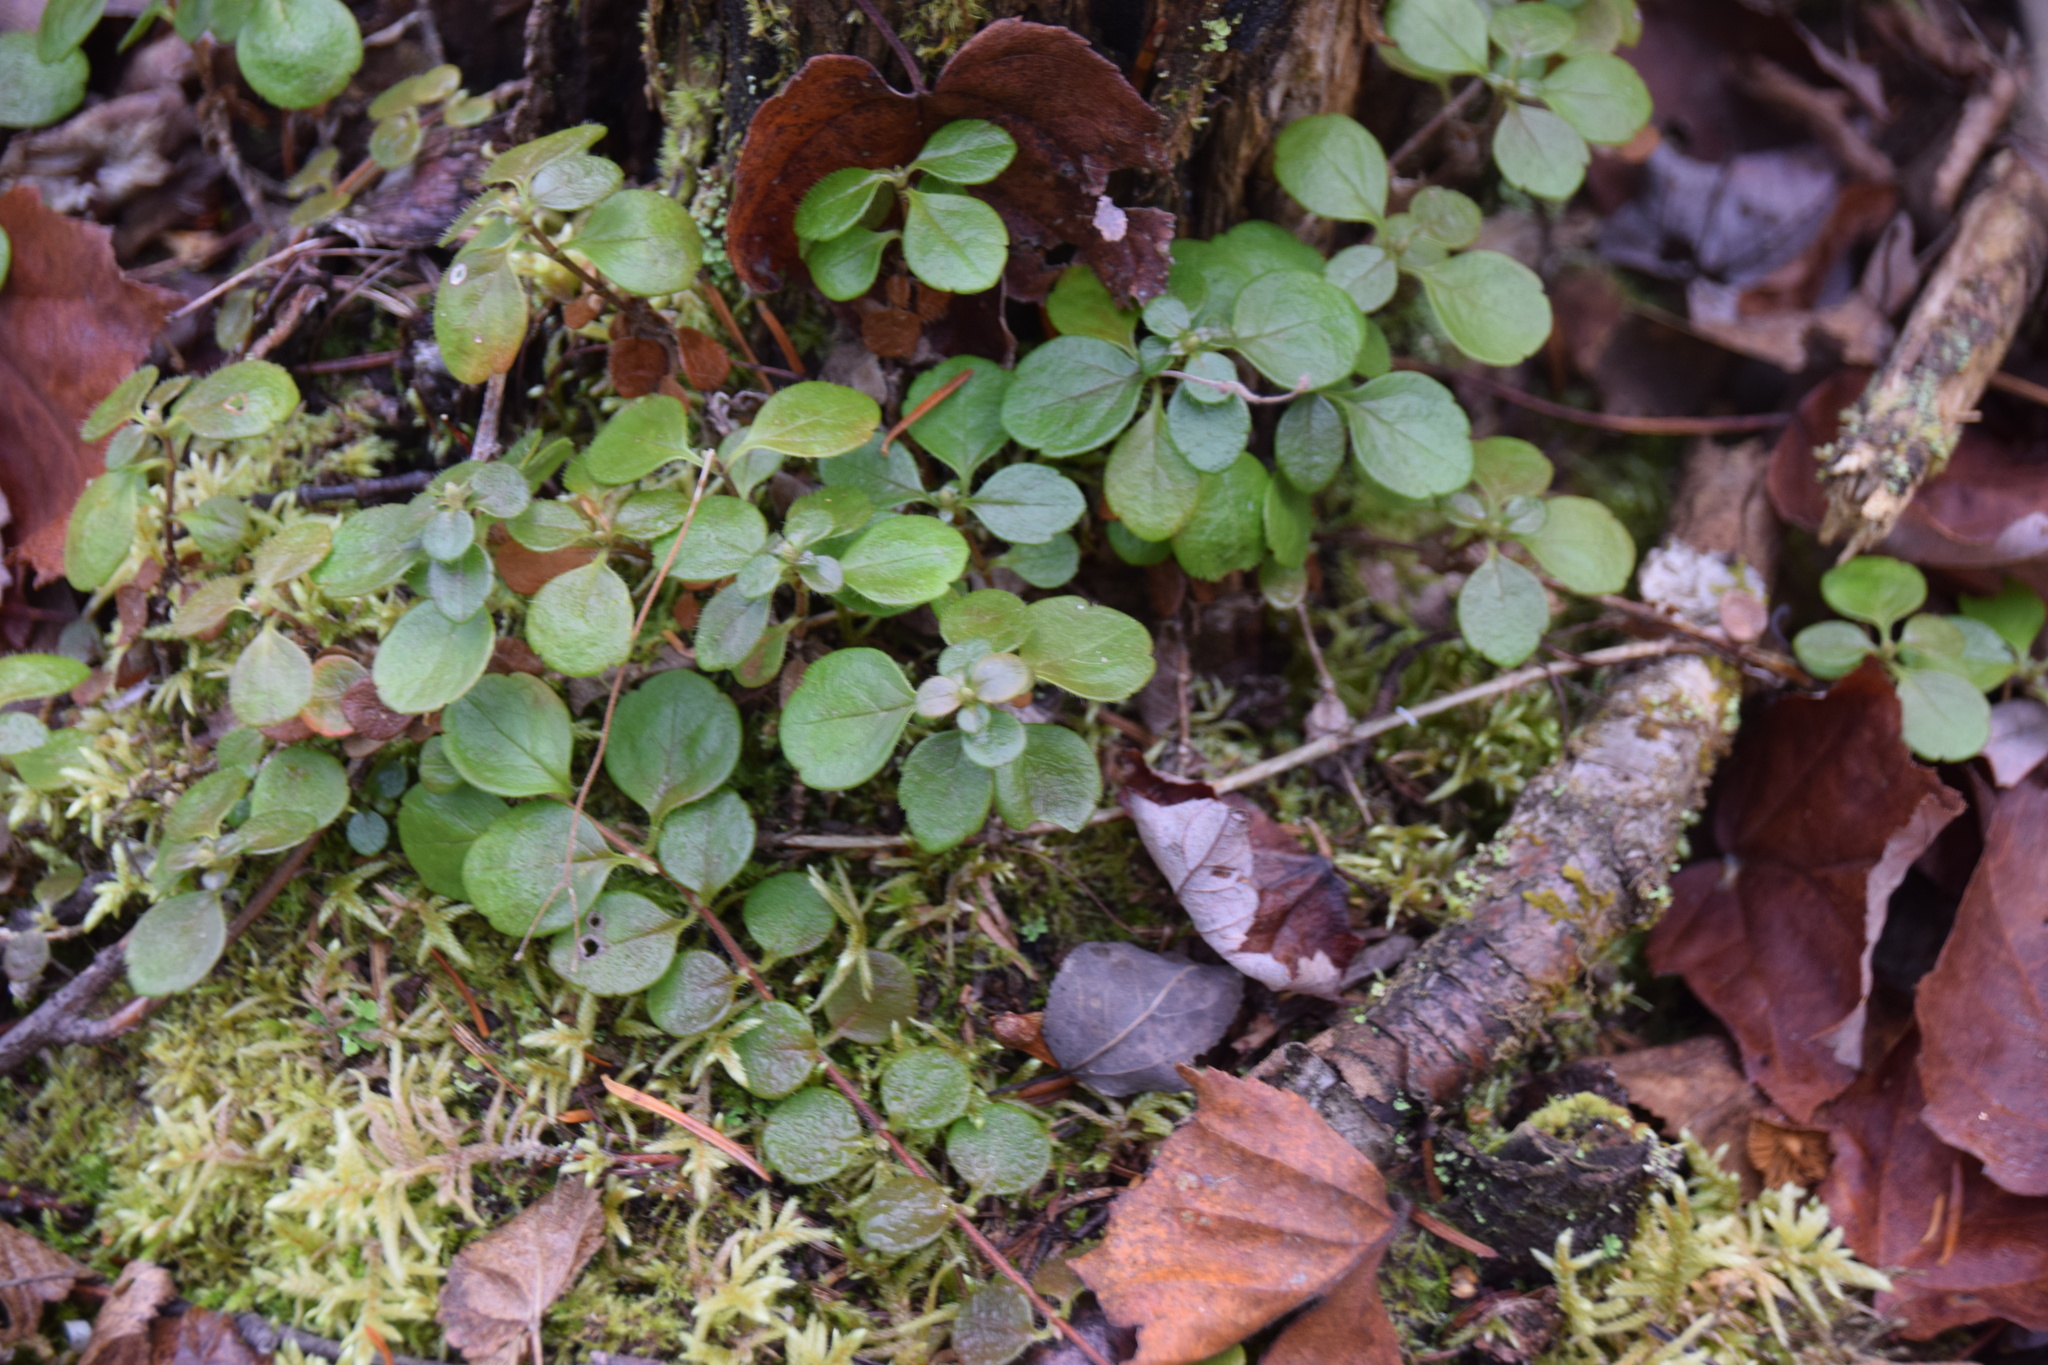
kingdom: Plantae
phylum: Tracheophyta
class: Magnoliopsida
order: Dipsacales
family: Caprifoliaceae
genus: Linnaea
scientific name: Linnaea borealis
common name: Twinflower
